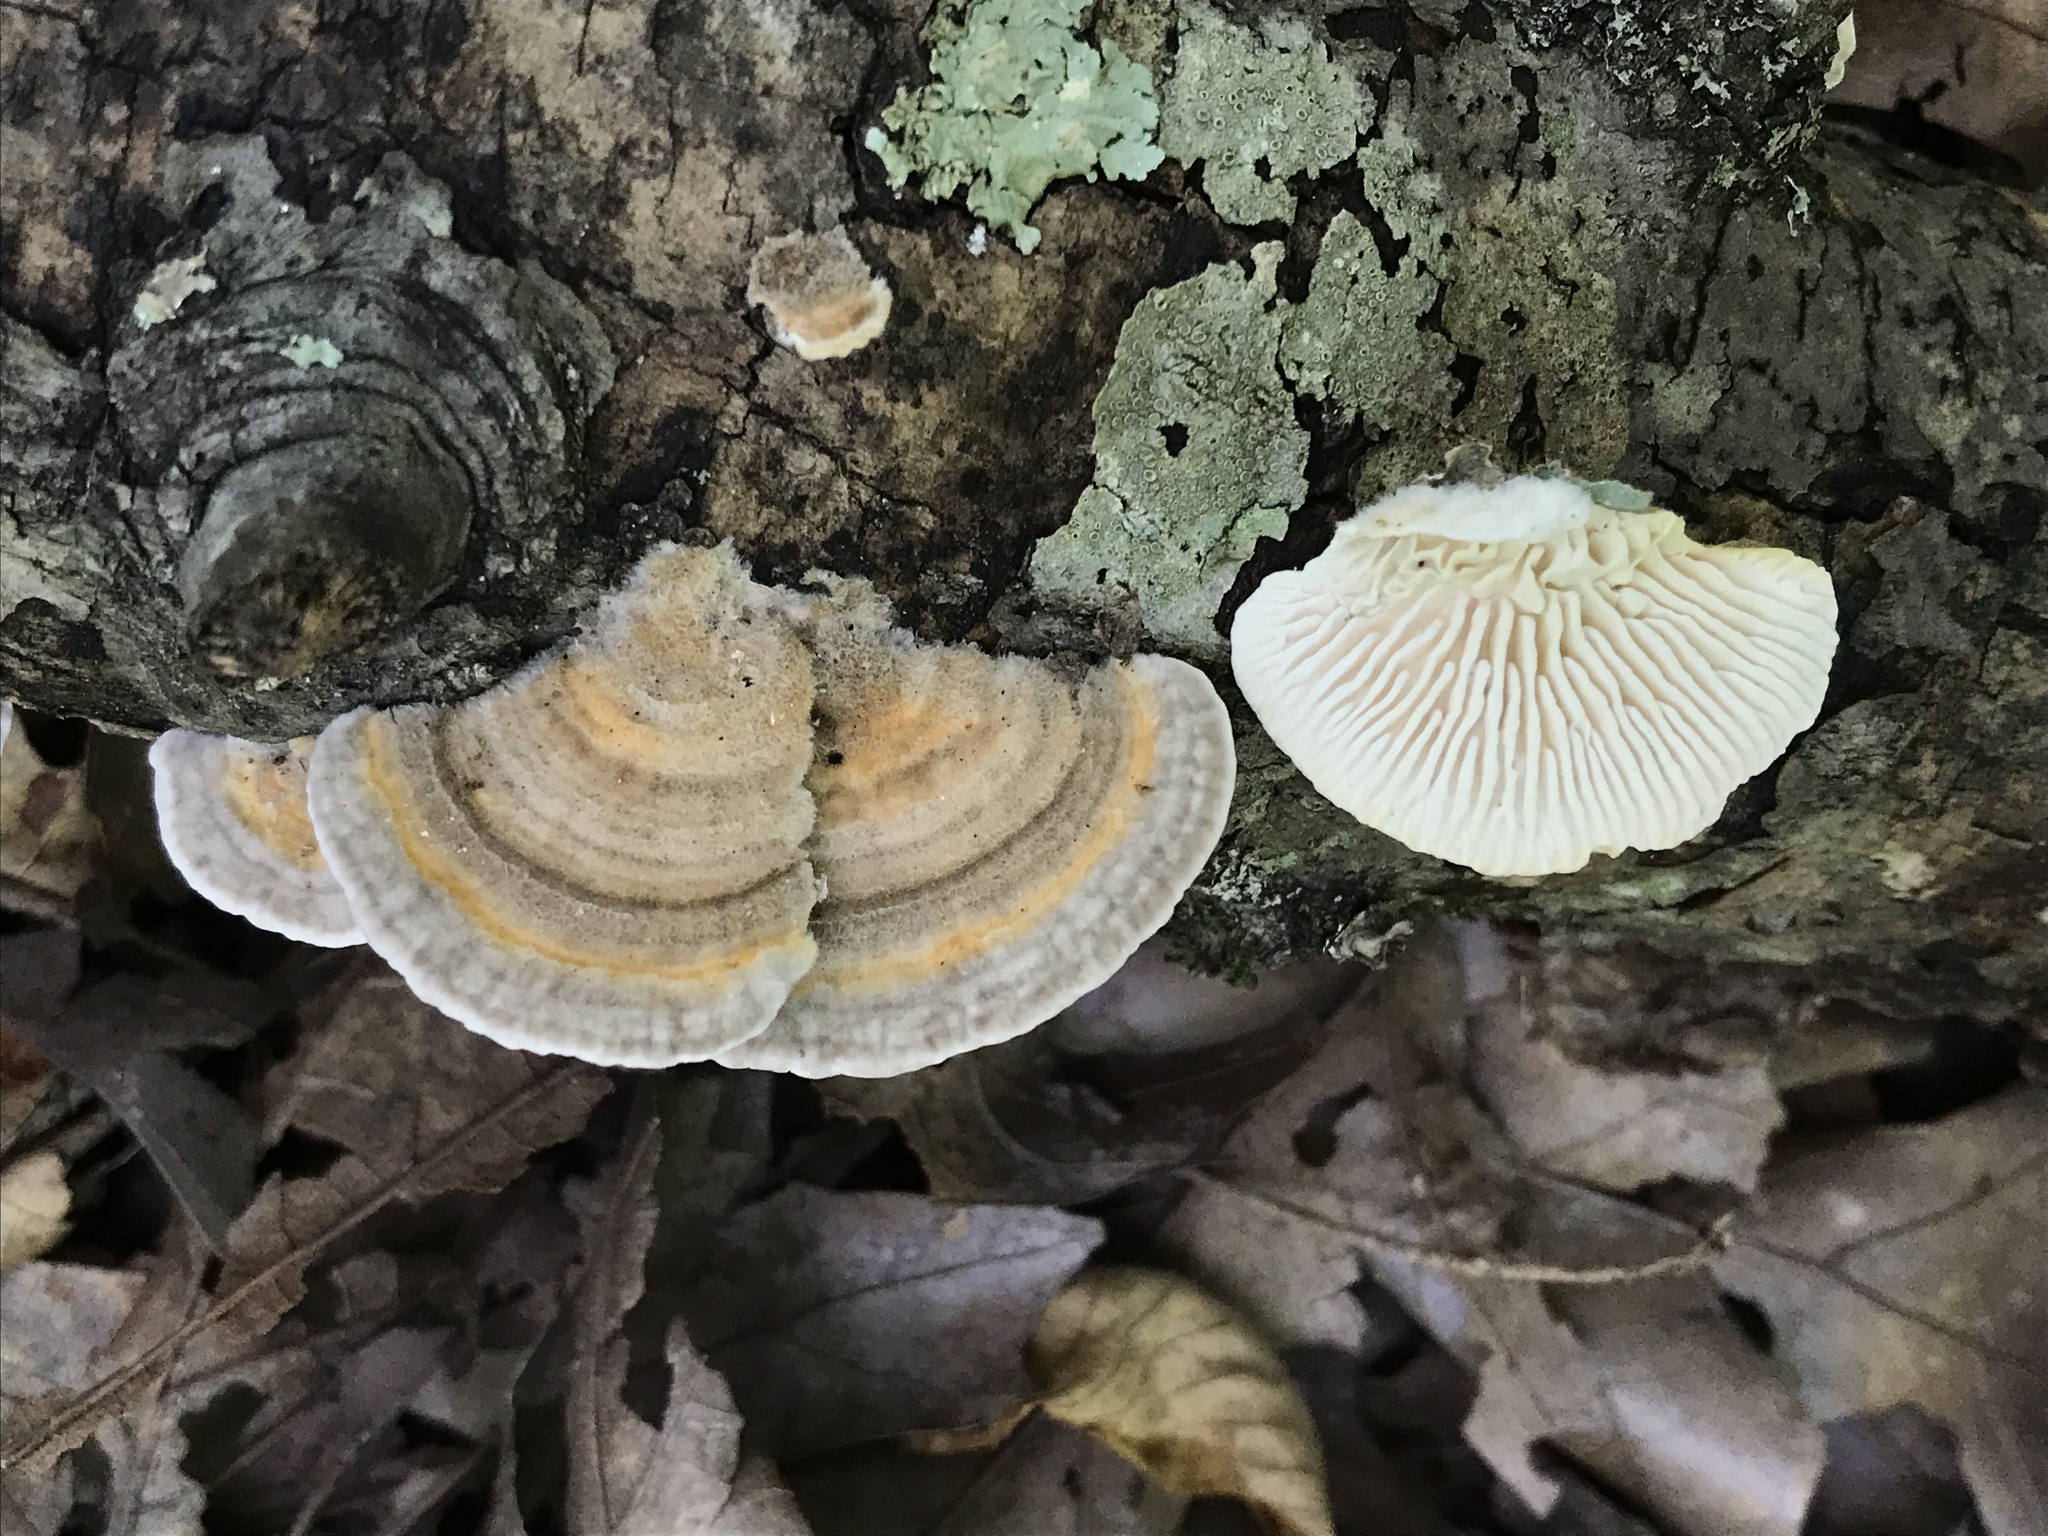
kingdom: Fungi
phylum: Basidiomycota
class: Agaricomycetes
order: Polyporales
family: Polyporaceae
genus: Lenzites
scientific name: Lenzites betulinus
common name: Birch mazegill
